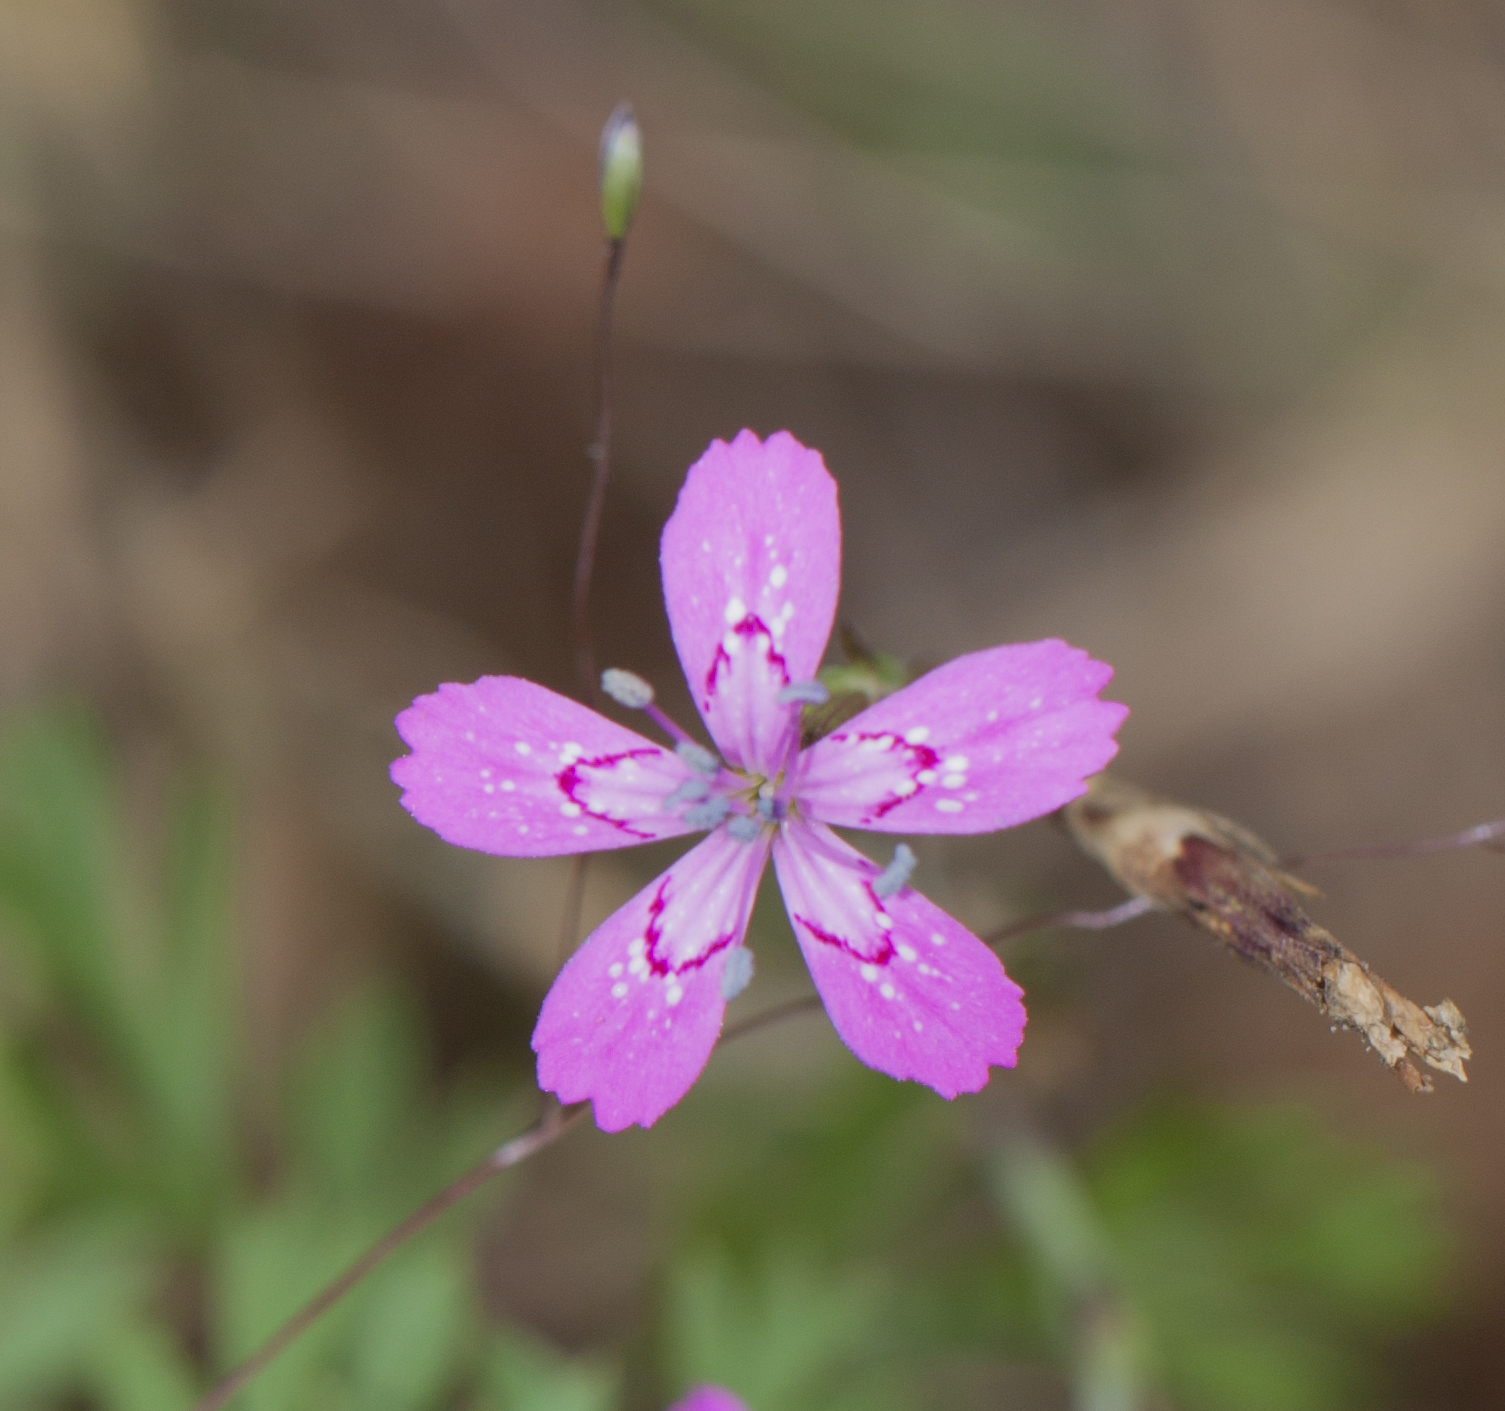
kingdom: Plantae
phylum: Tracheophyta
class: Magnoliopsida
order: Caryophyllales
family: Caryophyllaceae
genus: Dianthus
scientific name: Dianthus armeria
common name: Deptford pink
